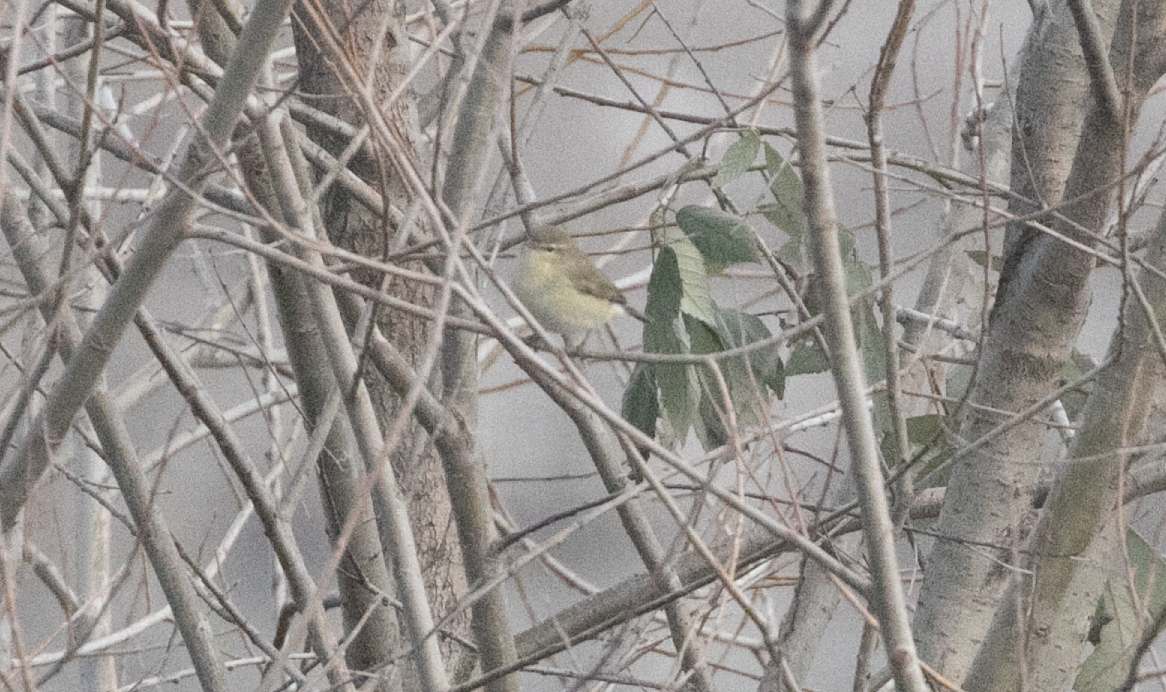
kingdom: Animalia
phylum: Chordata
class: Aves
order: Passeriformes
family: Phylloscopidae
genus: Phylloscopus
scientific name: Phylloscopus collybita
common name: Common chiffchaff
